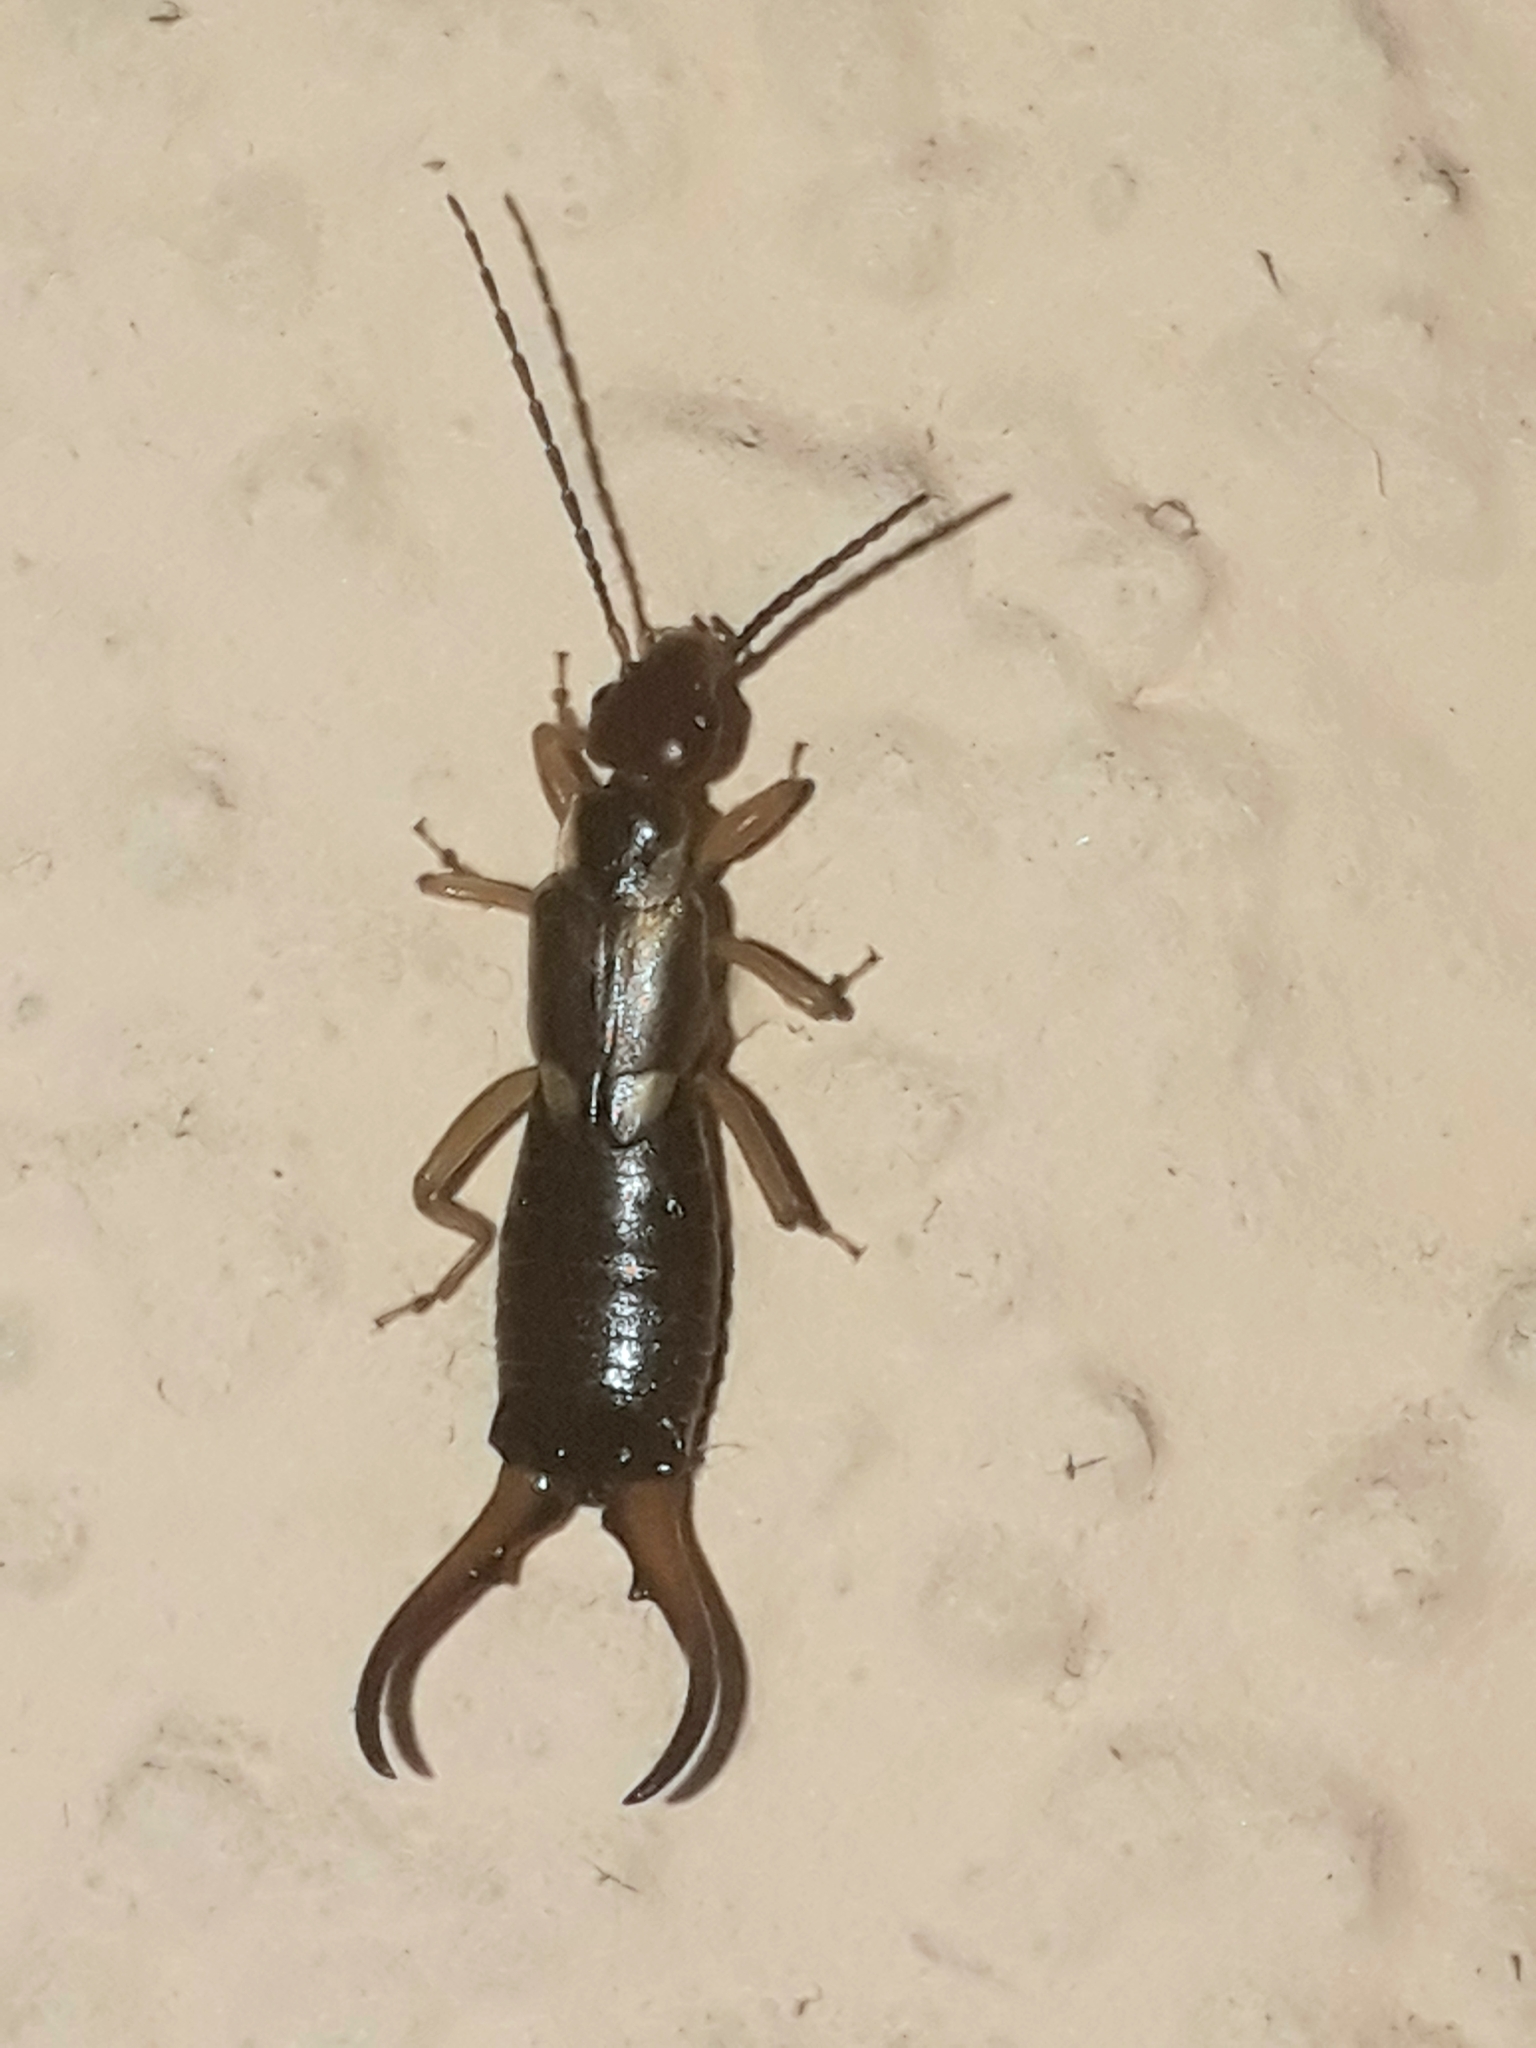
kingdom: Animalia
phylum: Arthropoda
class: Insecta
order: Dermaptera
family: Forficulidae
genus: Forficula
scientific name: Forficula
